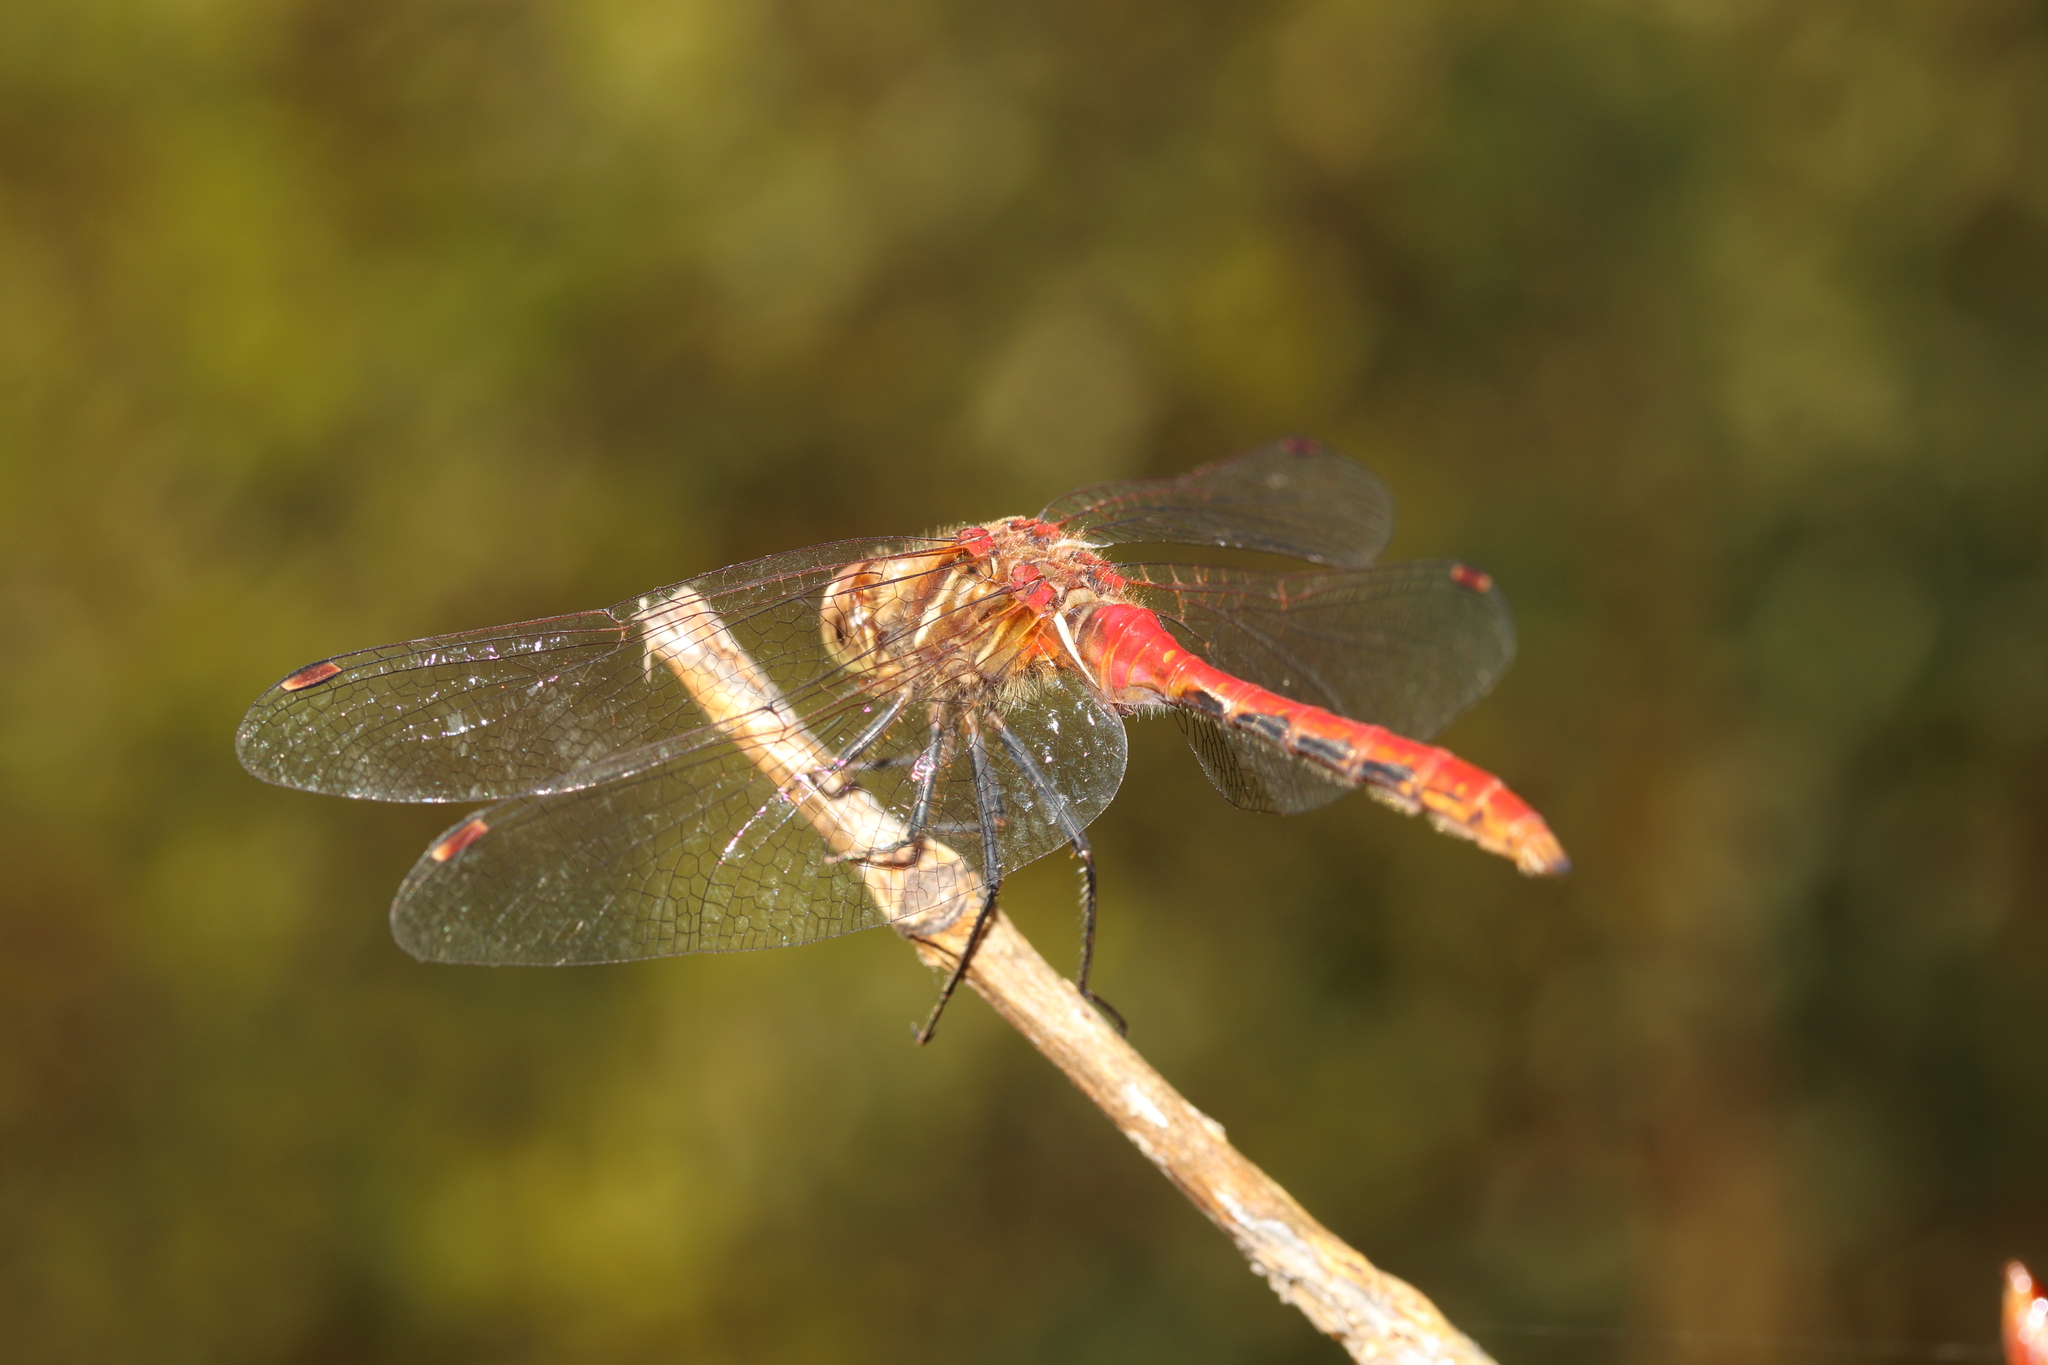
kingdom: Animalia
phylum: Arthropoda
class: Insecta
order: Odonata
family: Libellulidae
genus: Sympetrum
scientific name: Sympetrum pallipes
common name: Striped meadowhawk
